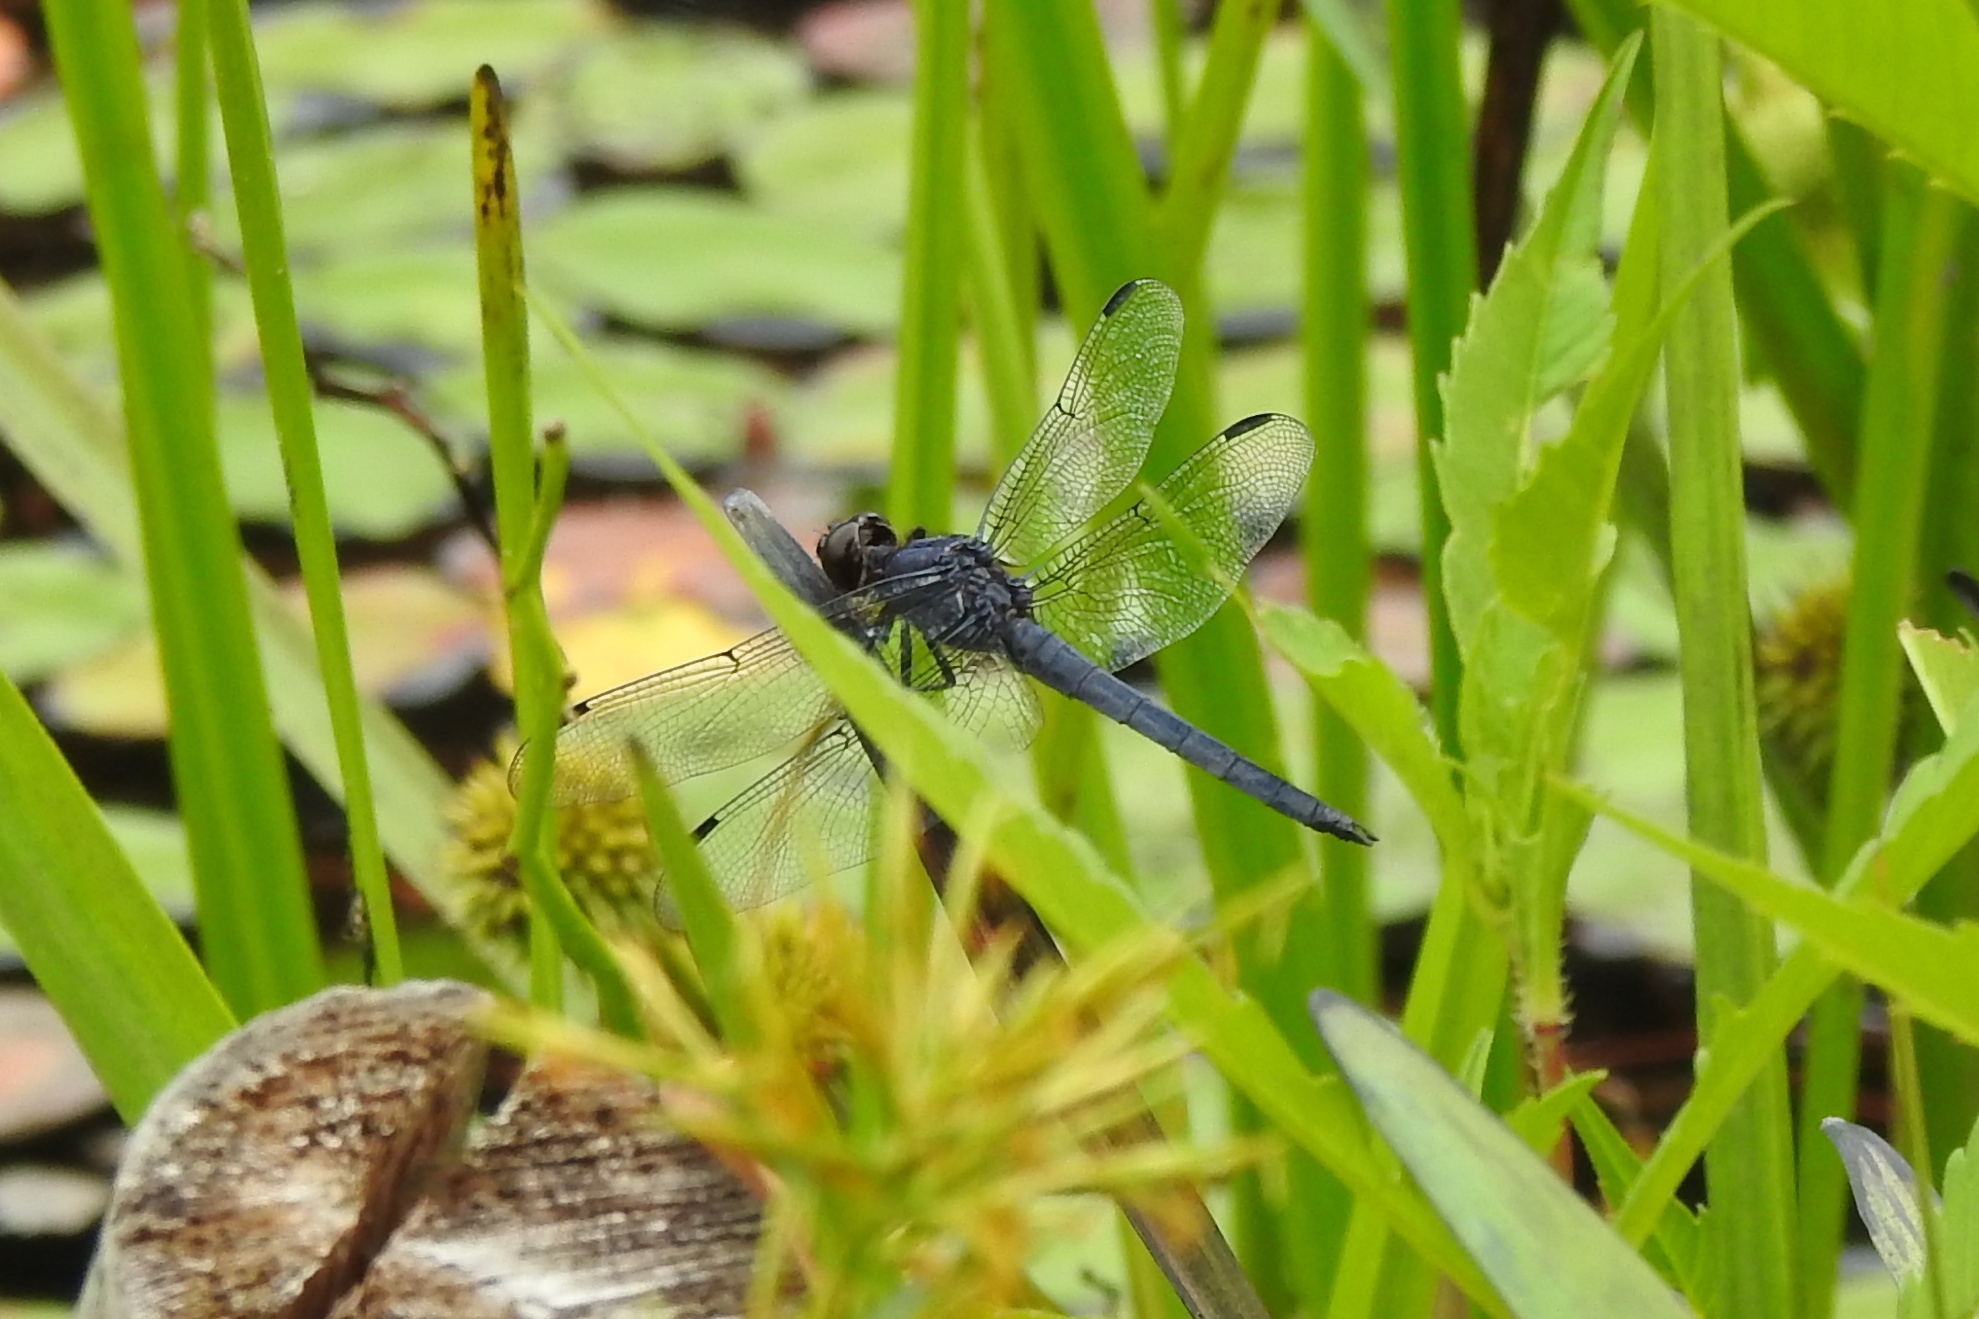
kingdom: Animalia
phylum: Arthropoda
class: Insecta
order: Odonata
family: Libellulidae
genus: Libellula
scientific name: Libellula incesta
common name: Slaty skimmer
